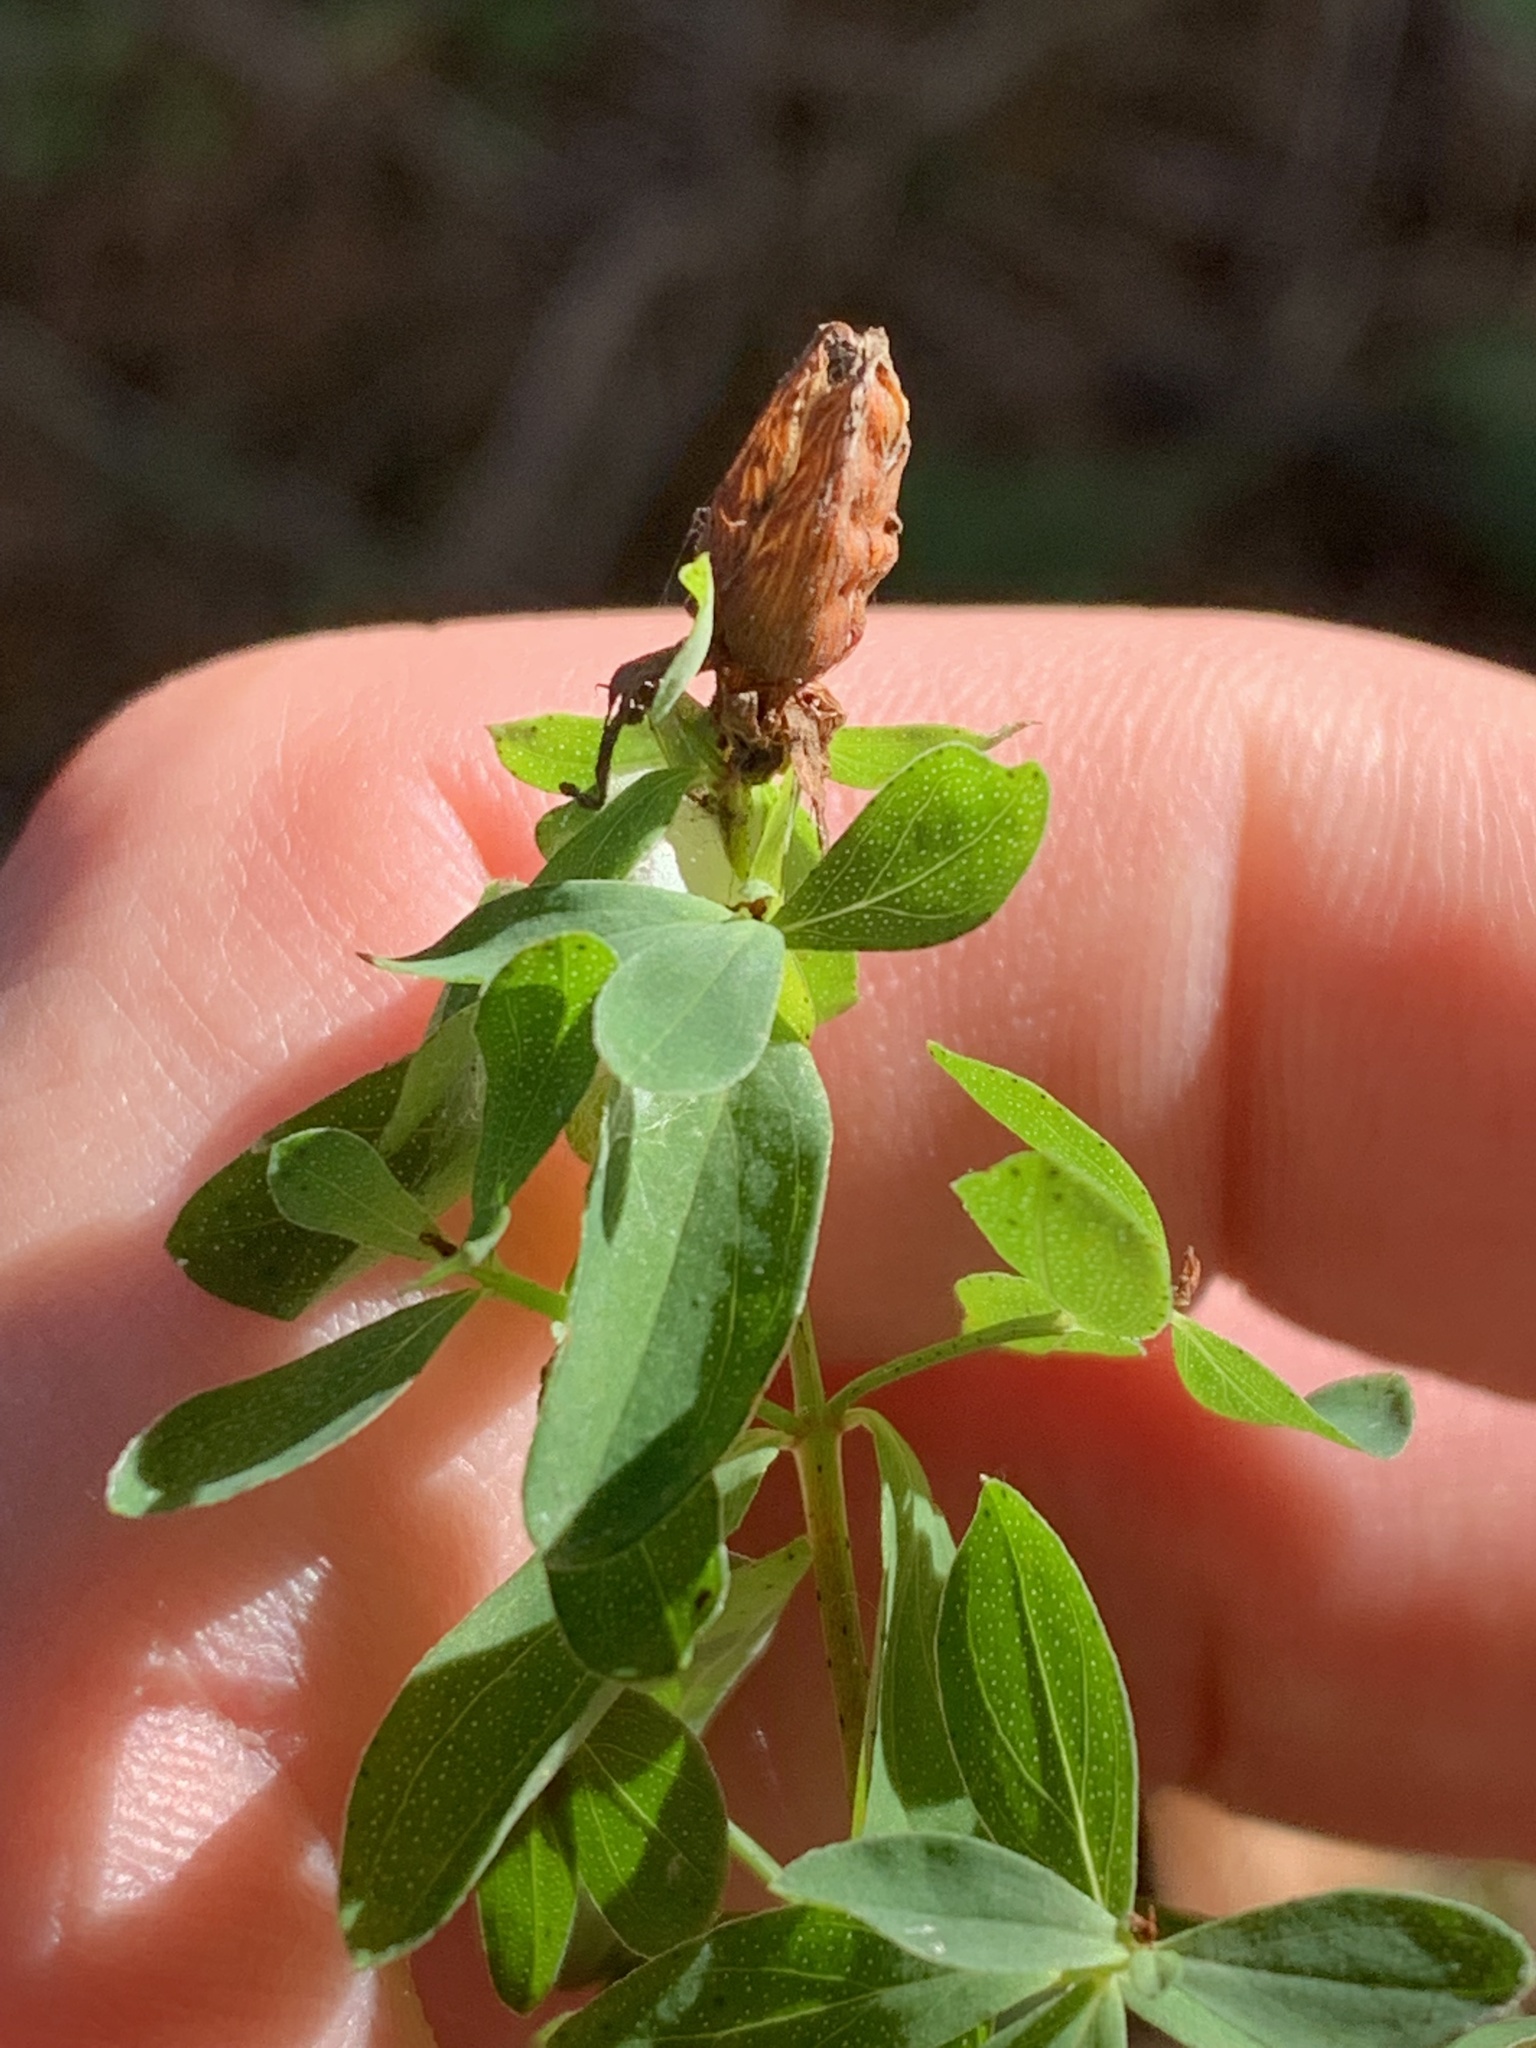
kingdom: Plantae
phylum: Tracheophyta
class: Magnoliopsida
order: Malpighiales
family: Hypericaceae
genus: Hypericum
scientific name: Hypericum perforatum
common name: Common st. johnswort
